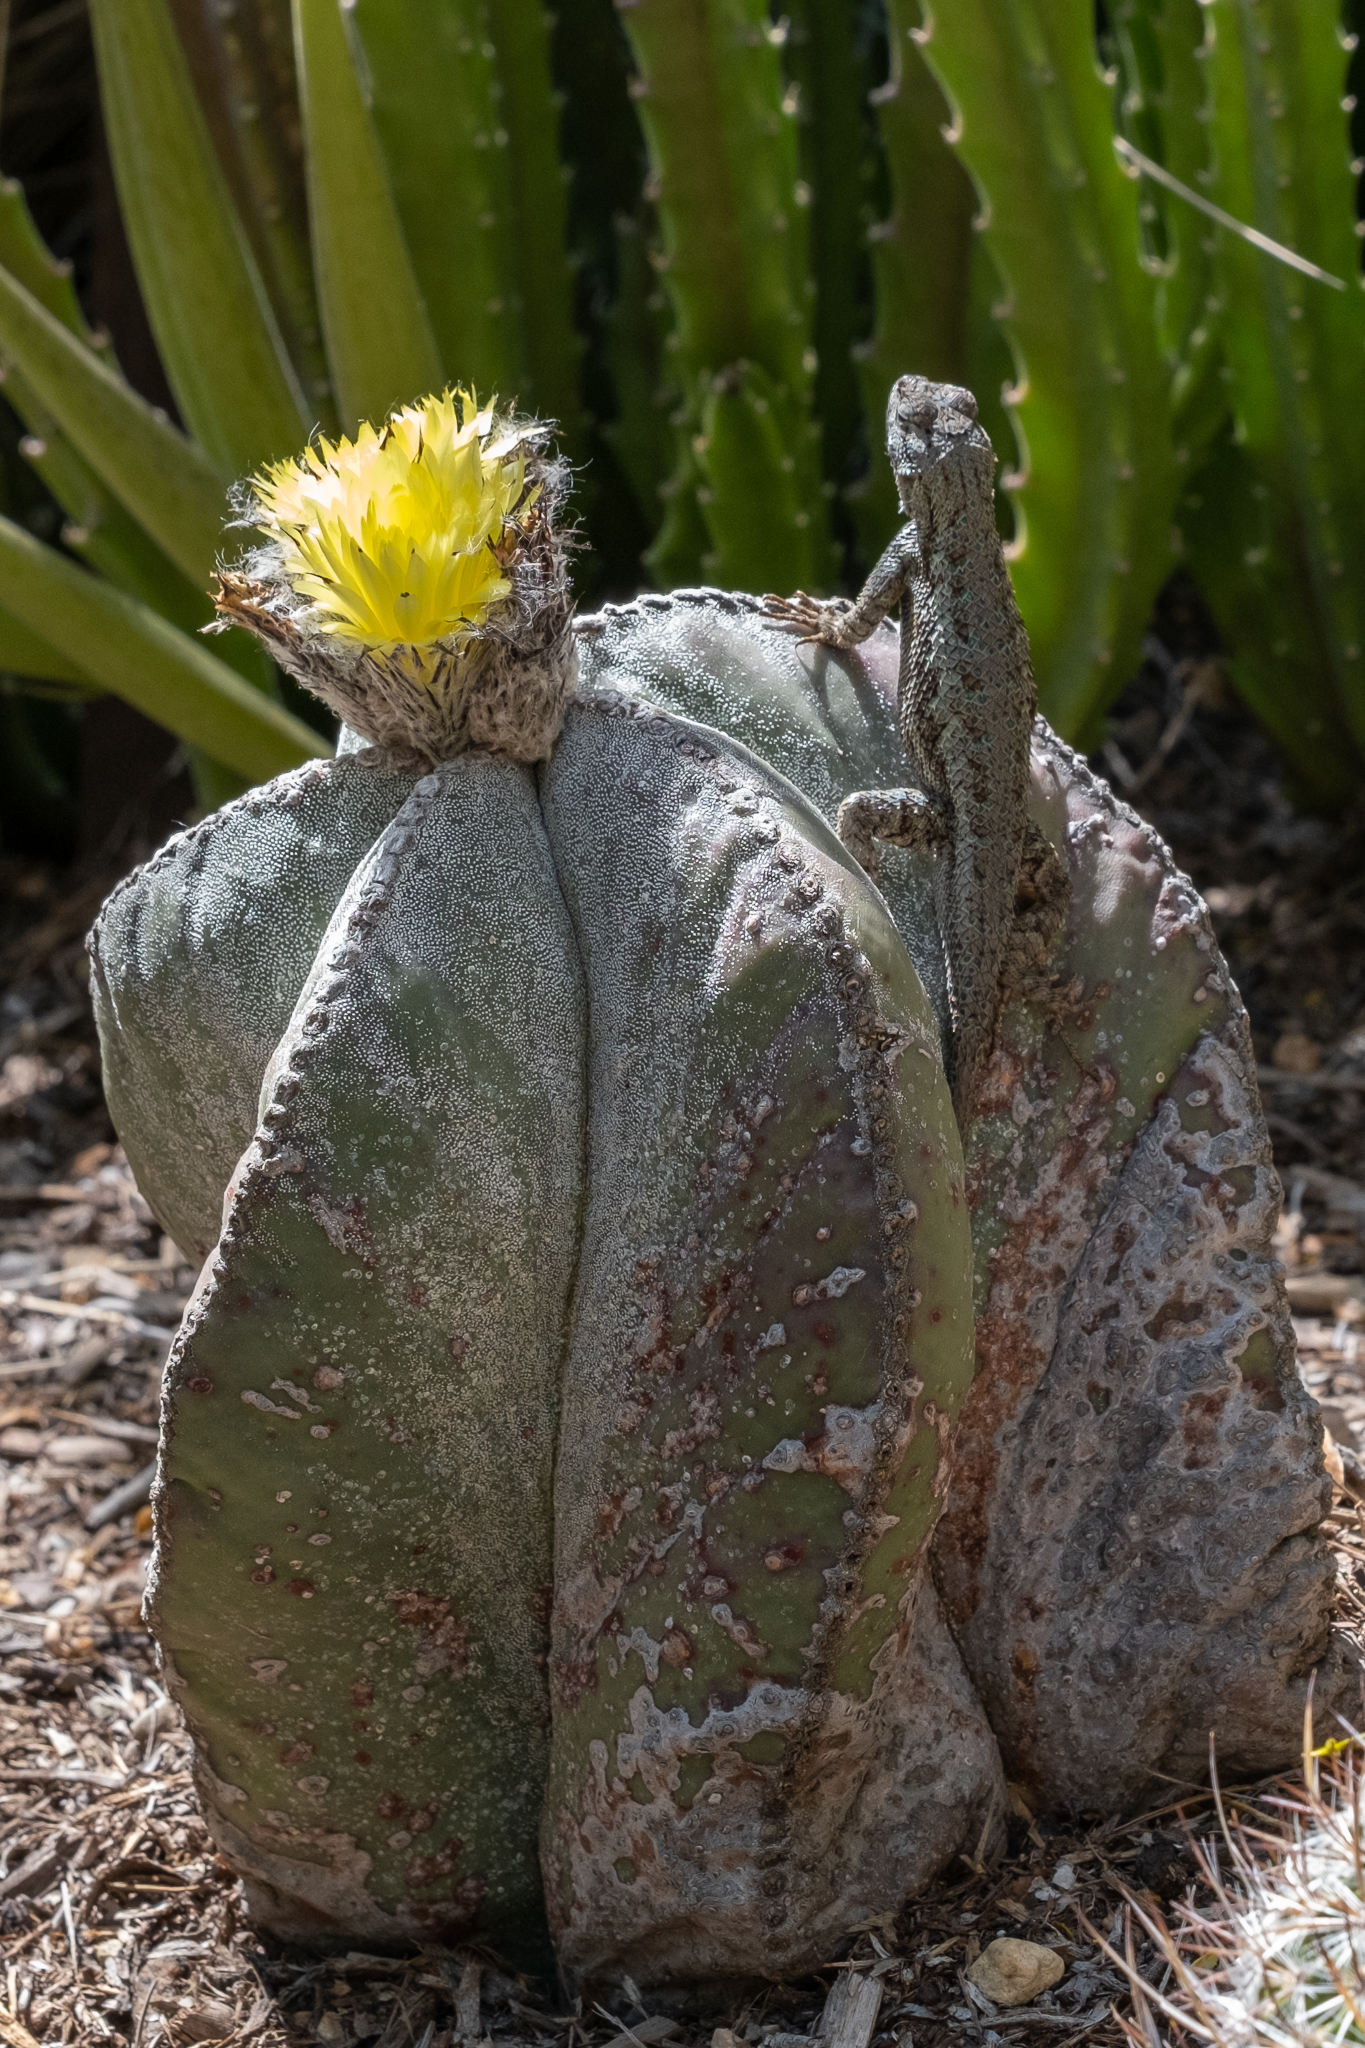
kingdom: Animalia
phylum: Chordata
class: Squamata
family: Phrynosomatidae
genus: Sceloporus
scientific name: Sceloporus occidentalis
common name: Western fence lizard
